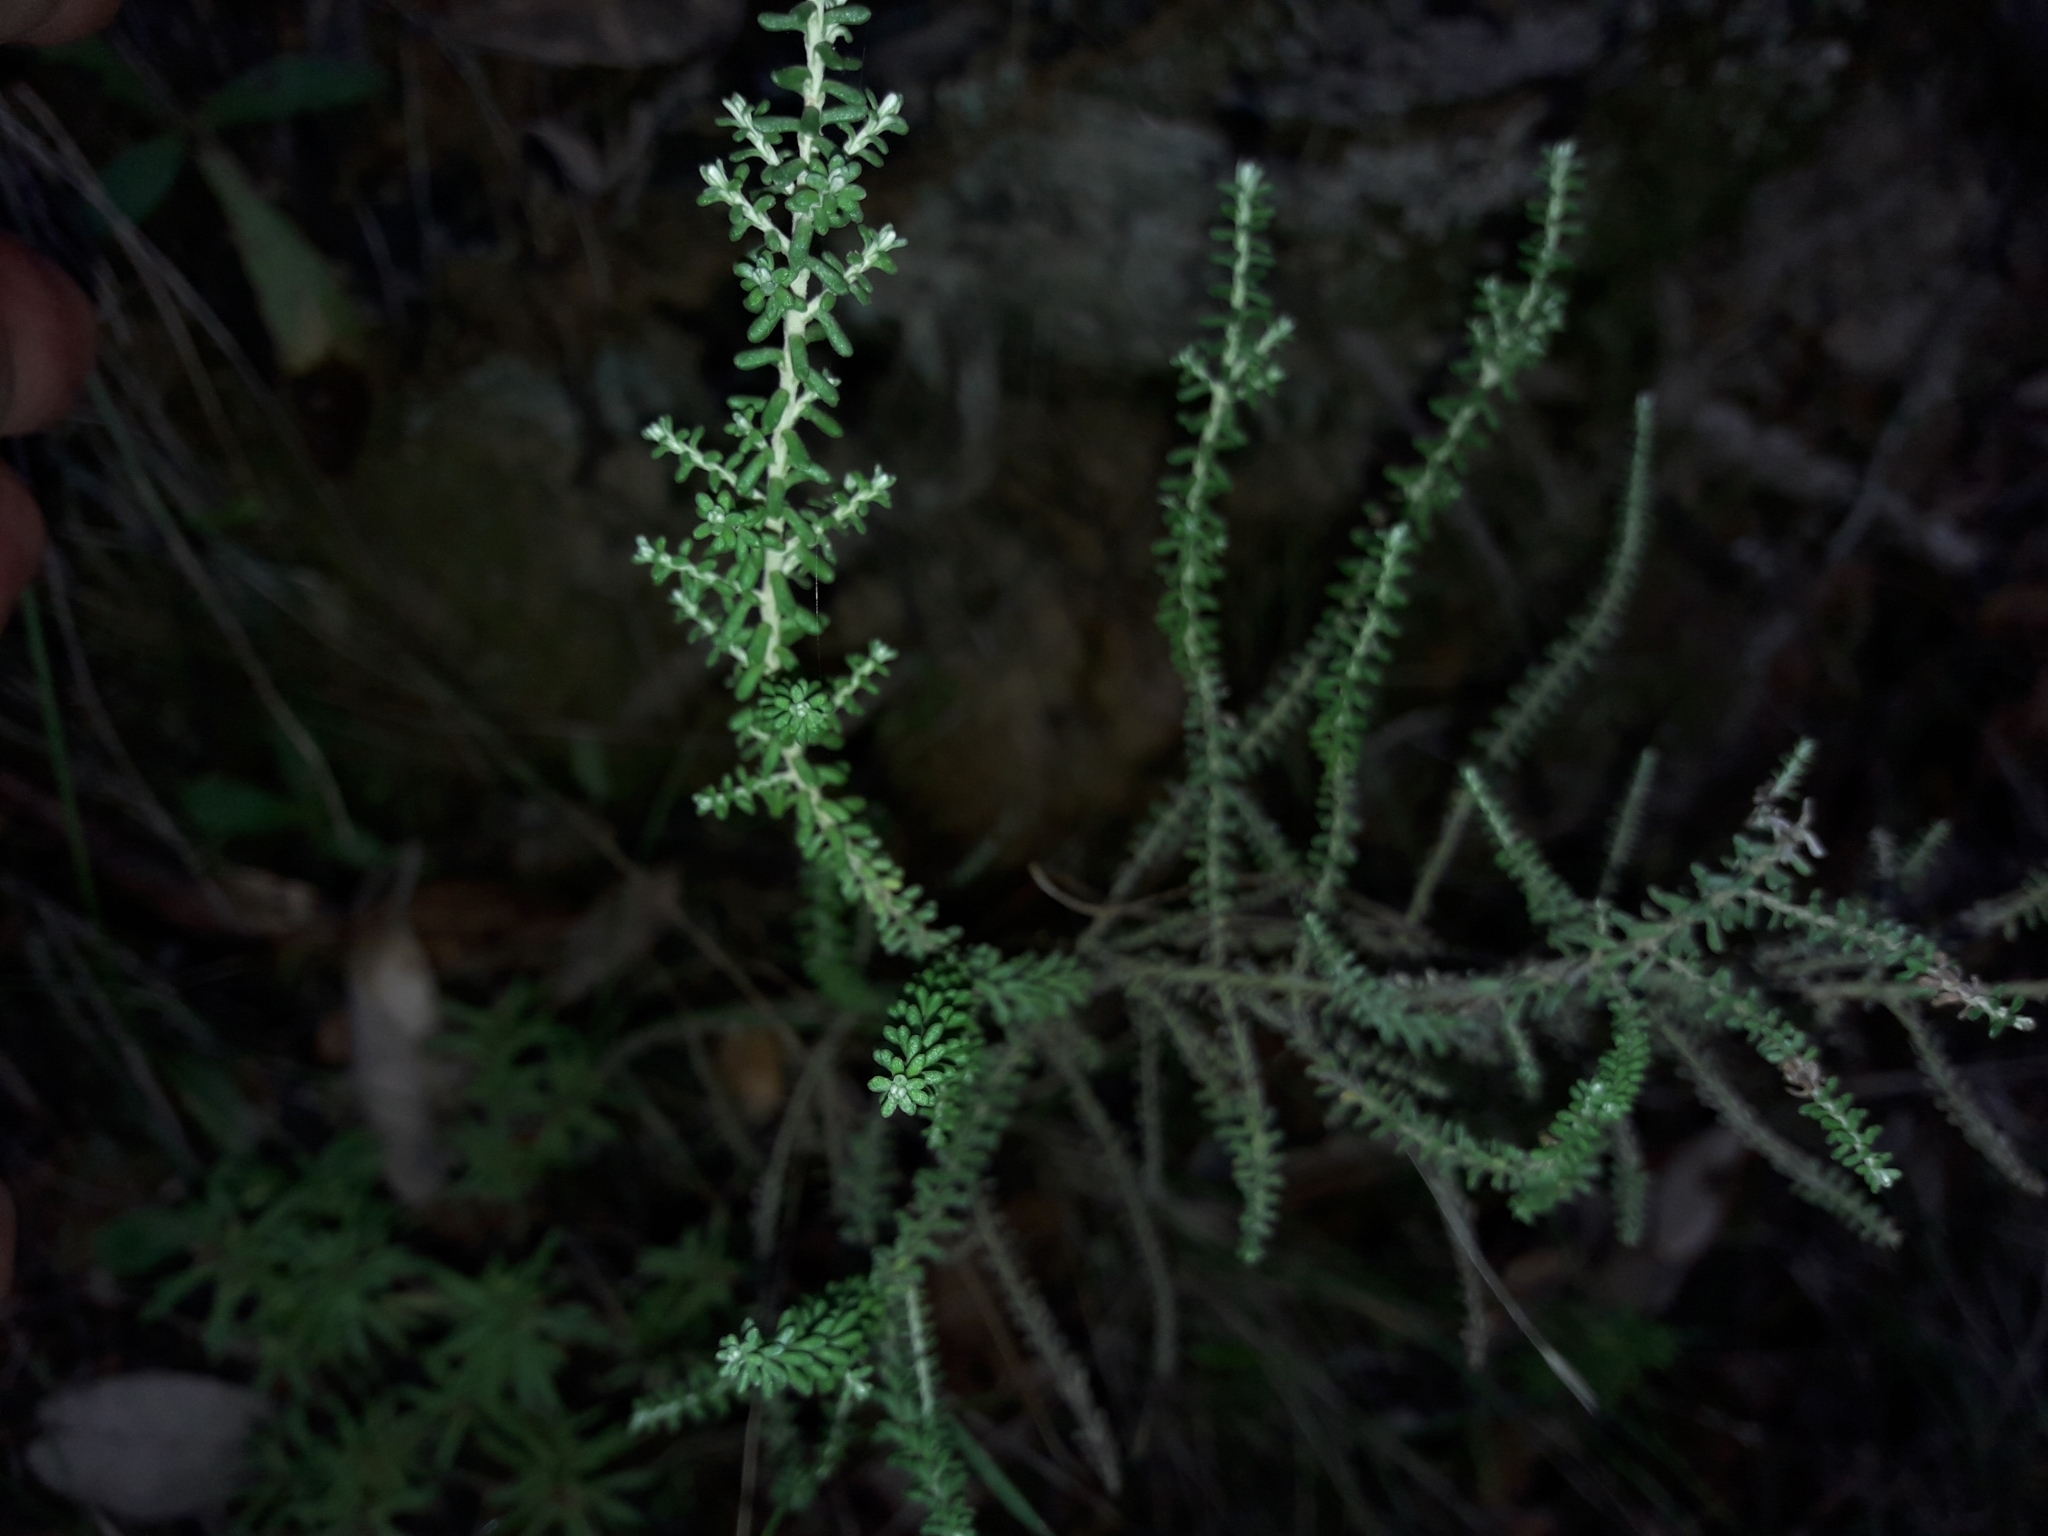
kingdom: Plantae
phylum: Tracheophyta
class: Magnoliopsida
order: Asterales
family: Asteraceae
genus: Ozothamnus
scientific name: Ozothamnus leptophyllus
